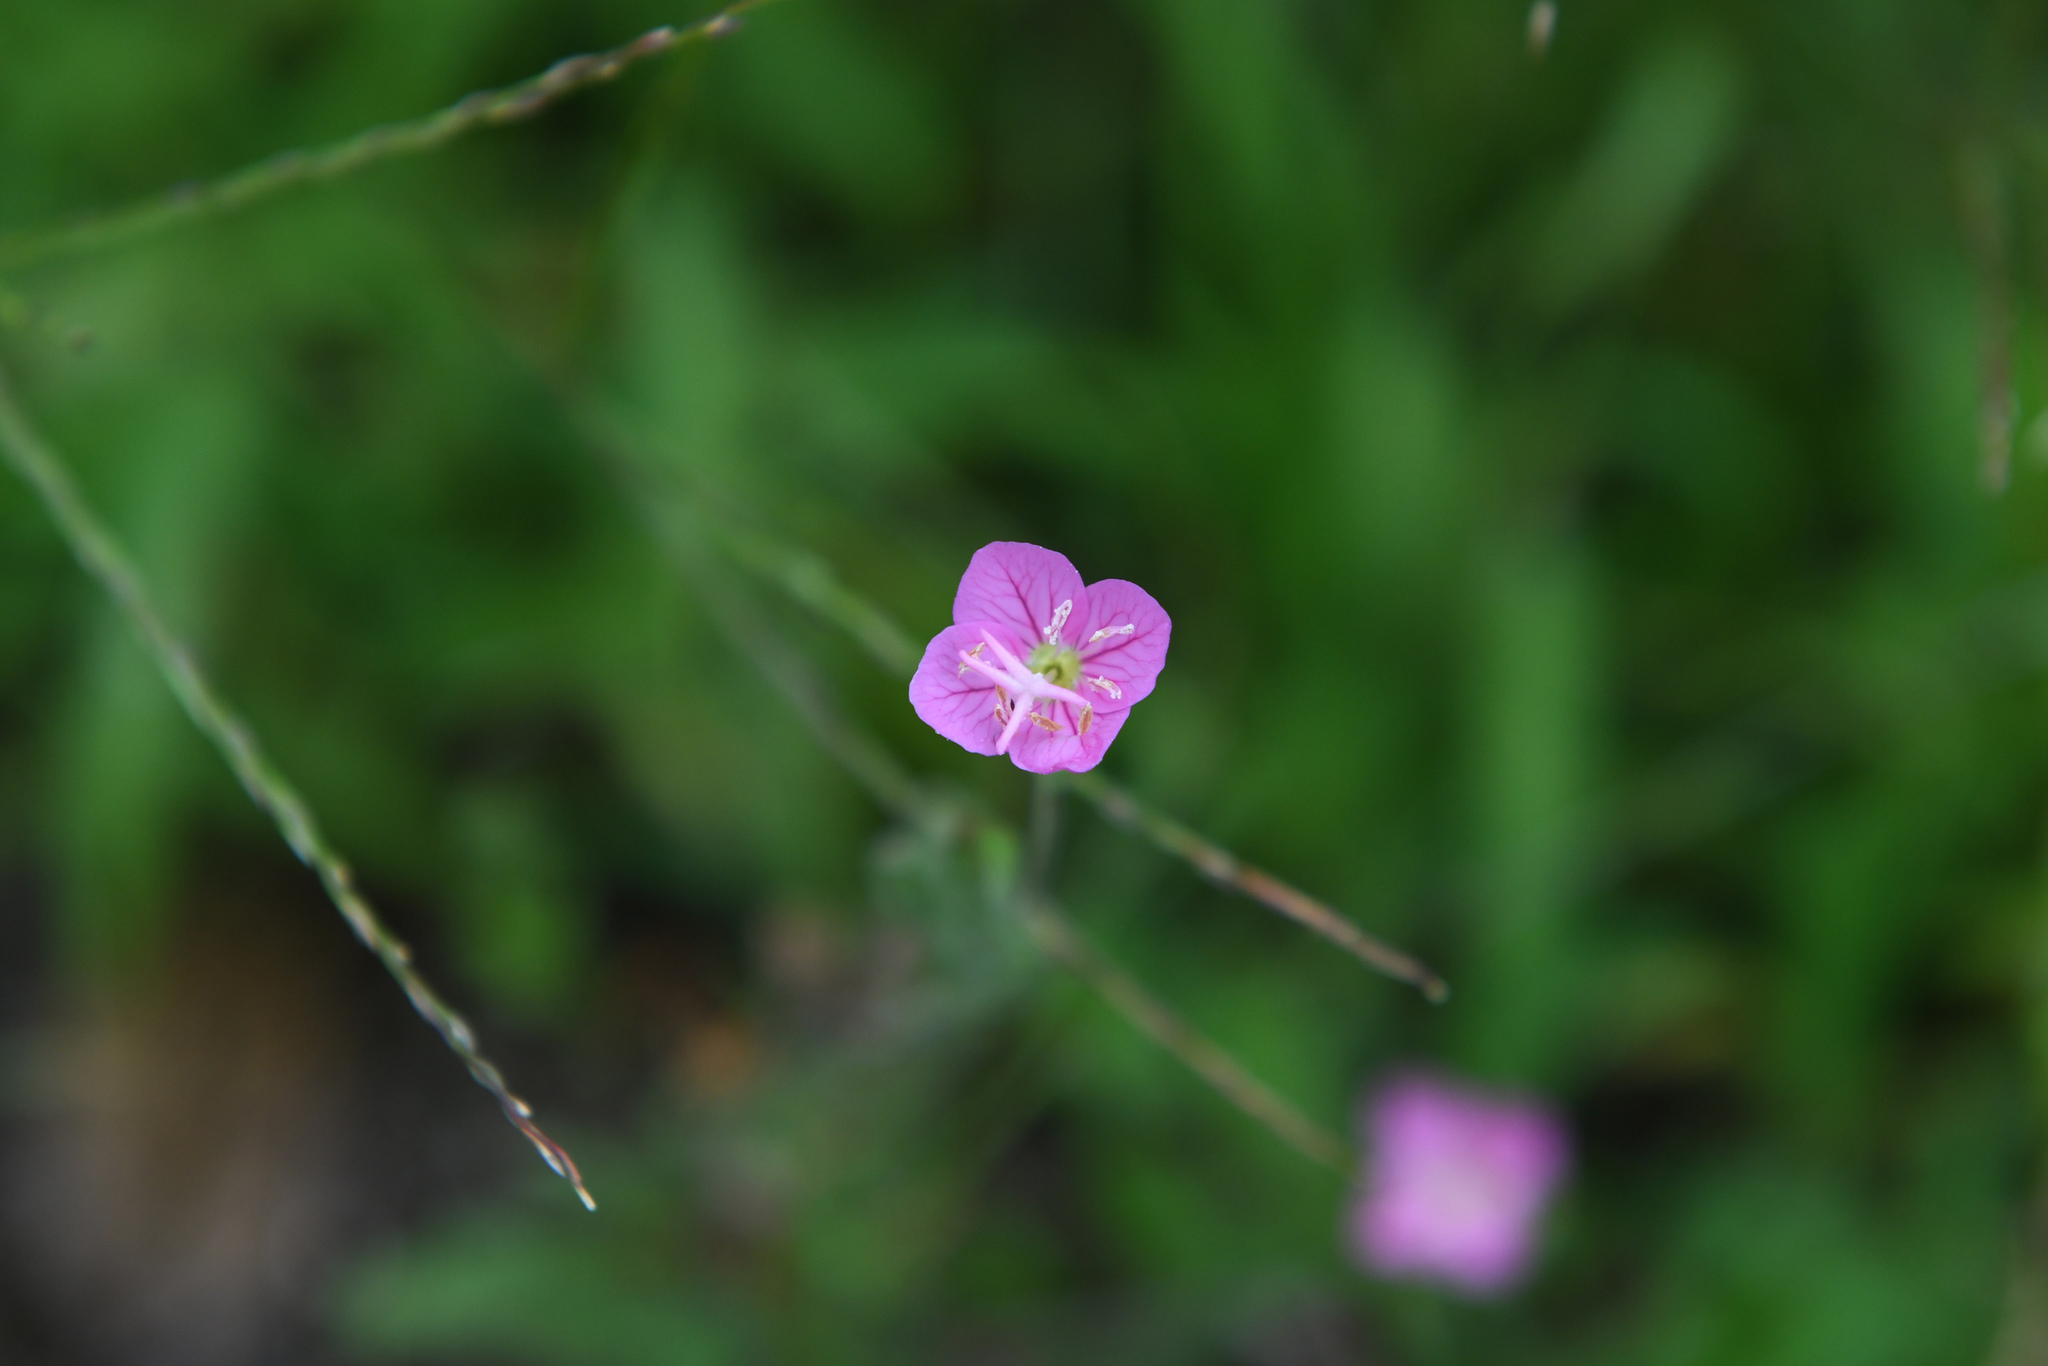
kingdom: Plantae
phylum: Tracheophyta
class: Magnoliopsida
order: Myrtales
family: Onagraceae
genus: Oenothera
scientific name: Oenothera rosea
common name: Rosy evening-primrose
